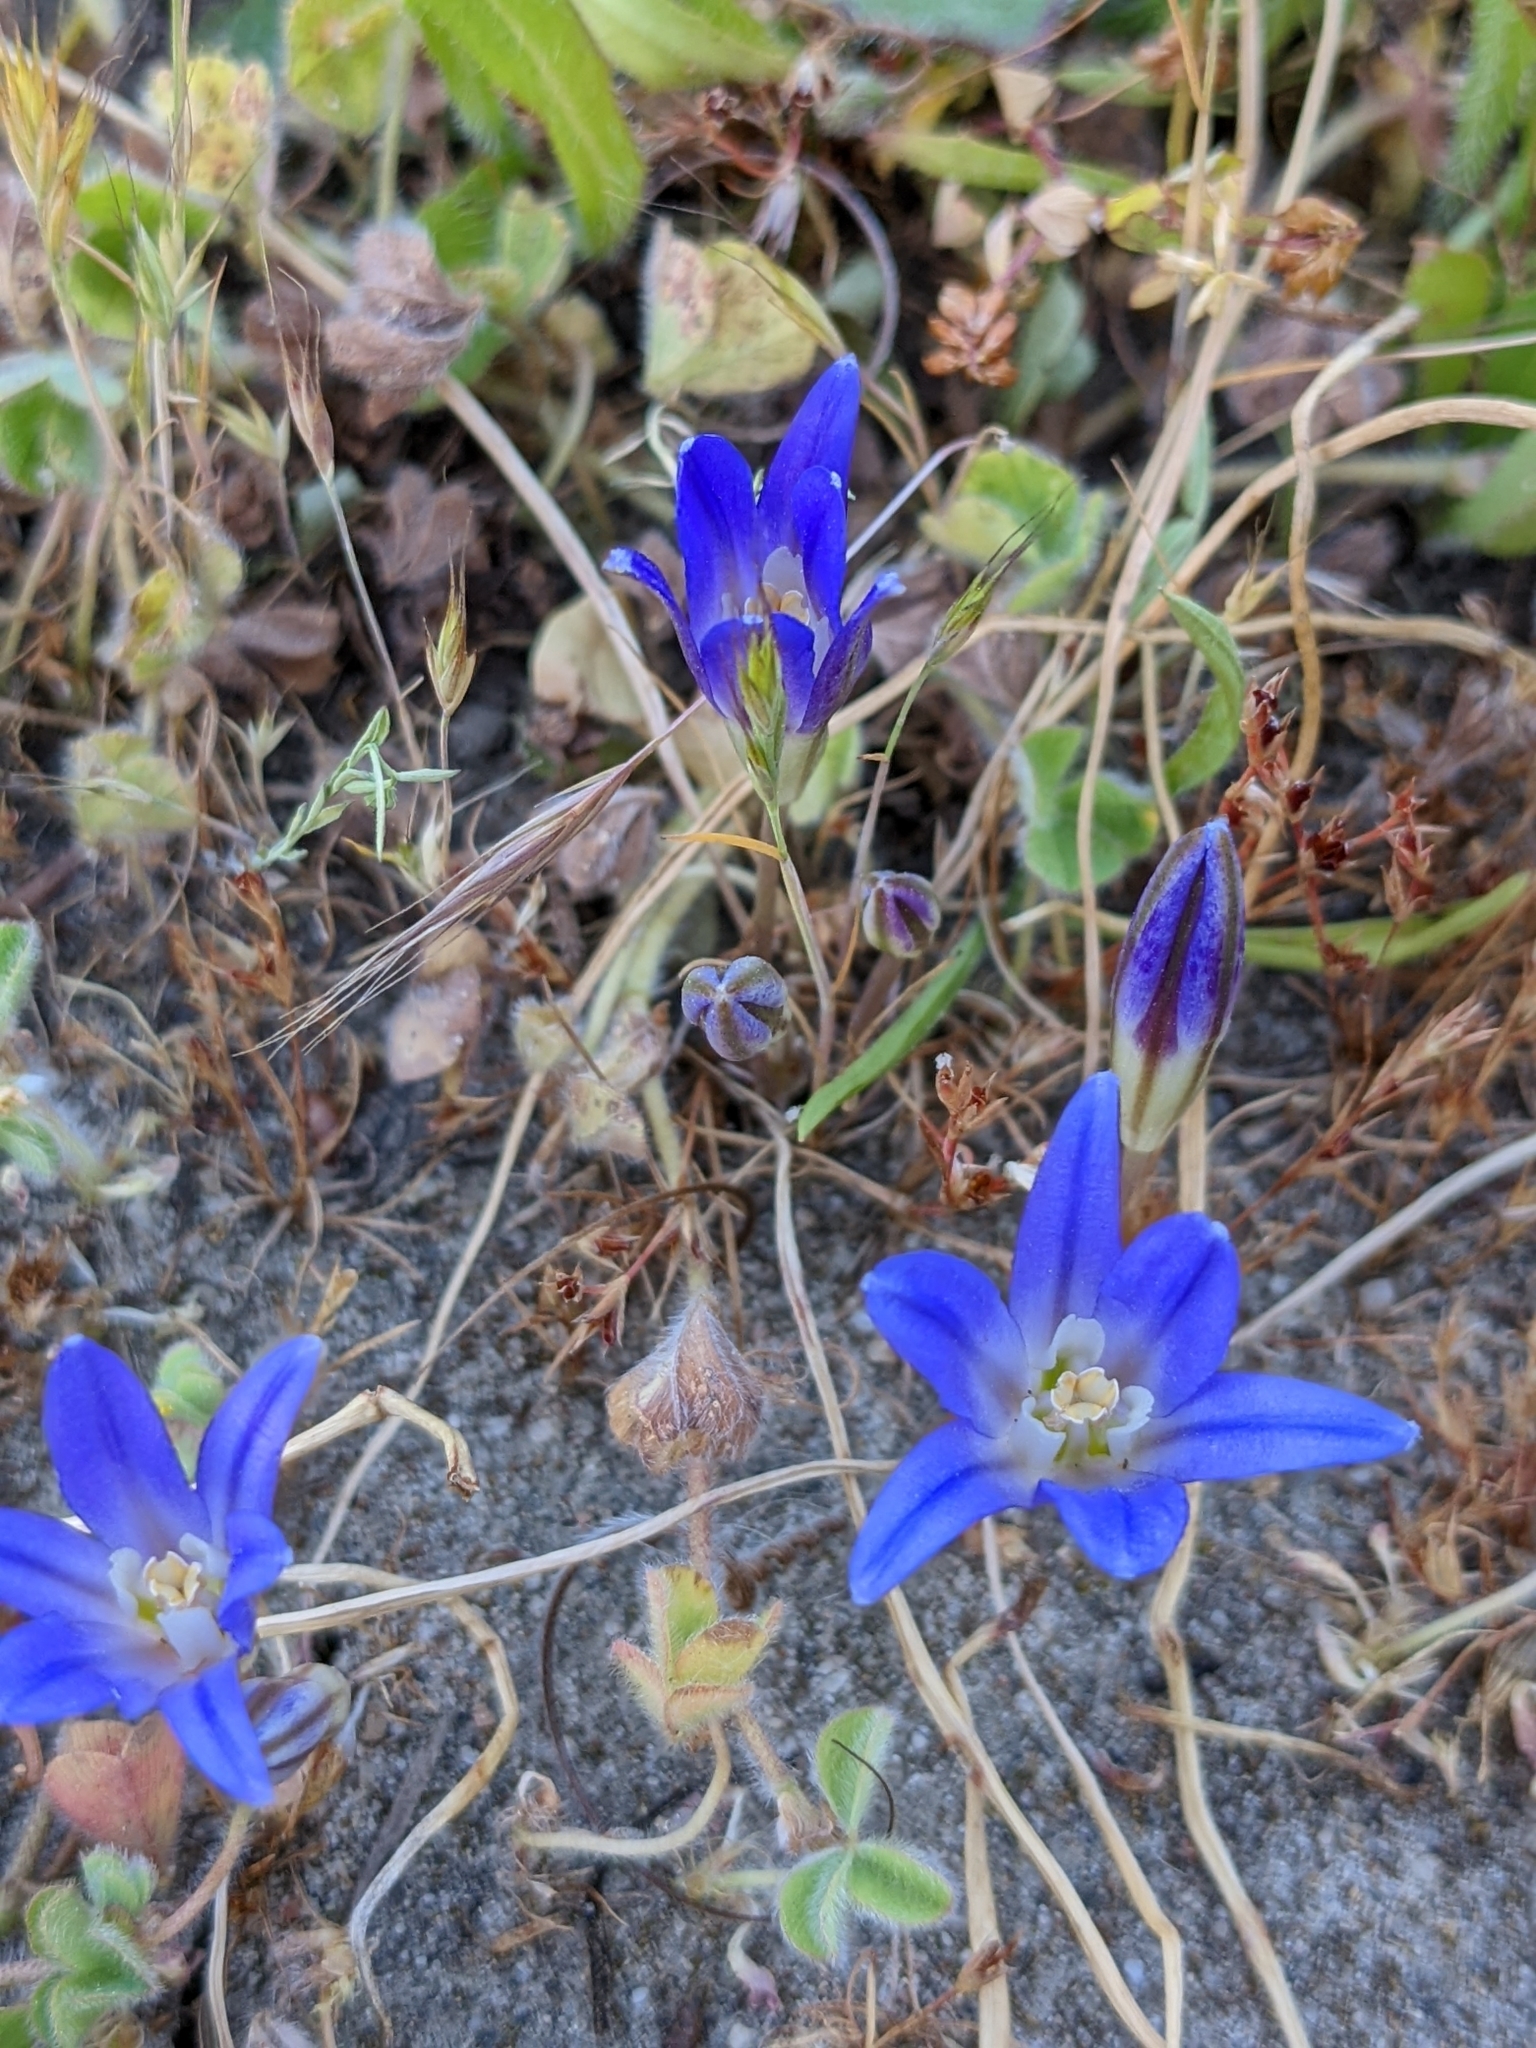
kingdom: Plantae
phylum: Tracheophyta
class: Liliopsida
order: Asparagales
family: Asparagaceae
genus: Brodiaea
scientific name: Brodiaea terrestris
